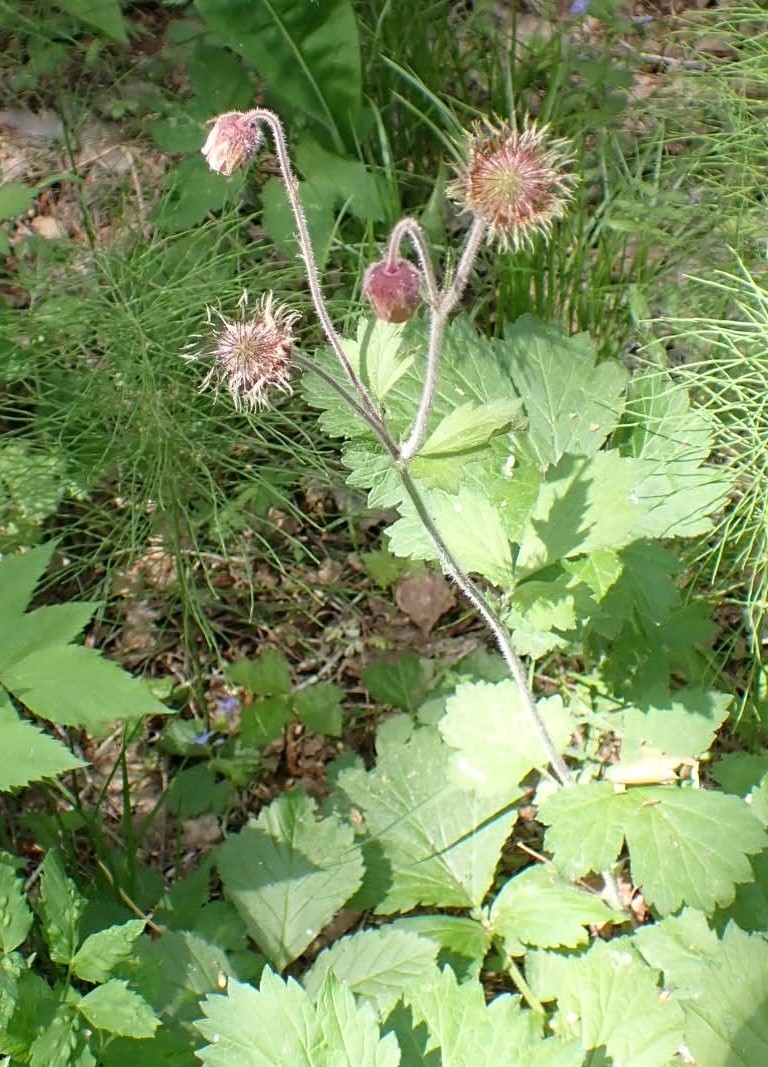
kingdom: Plantae
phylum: Tracheophyta
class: Magnoliopsida
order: Rosales
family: Rosaceae
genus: Geum
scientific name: Geum rivale
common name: Water avens
